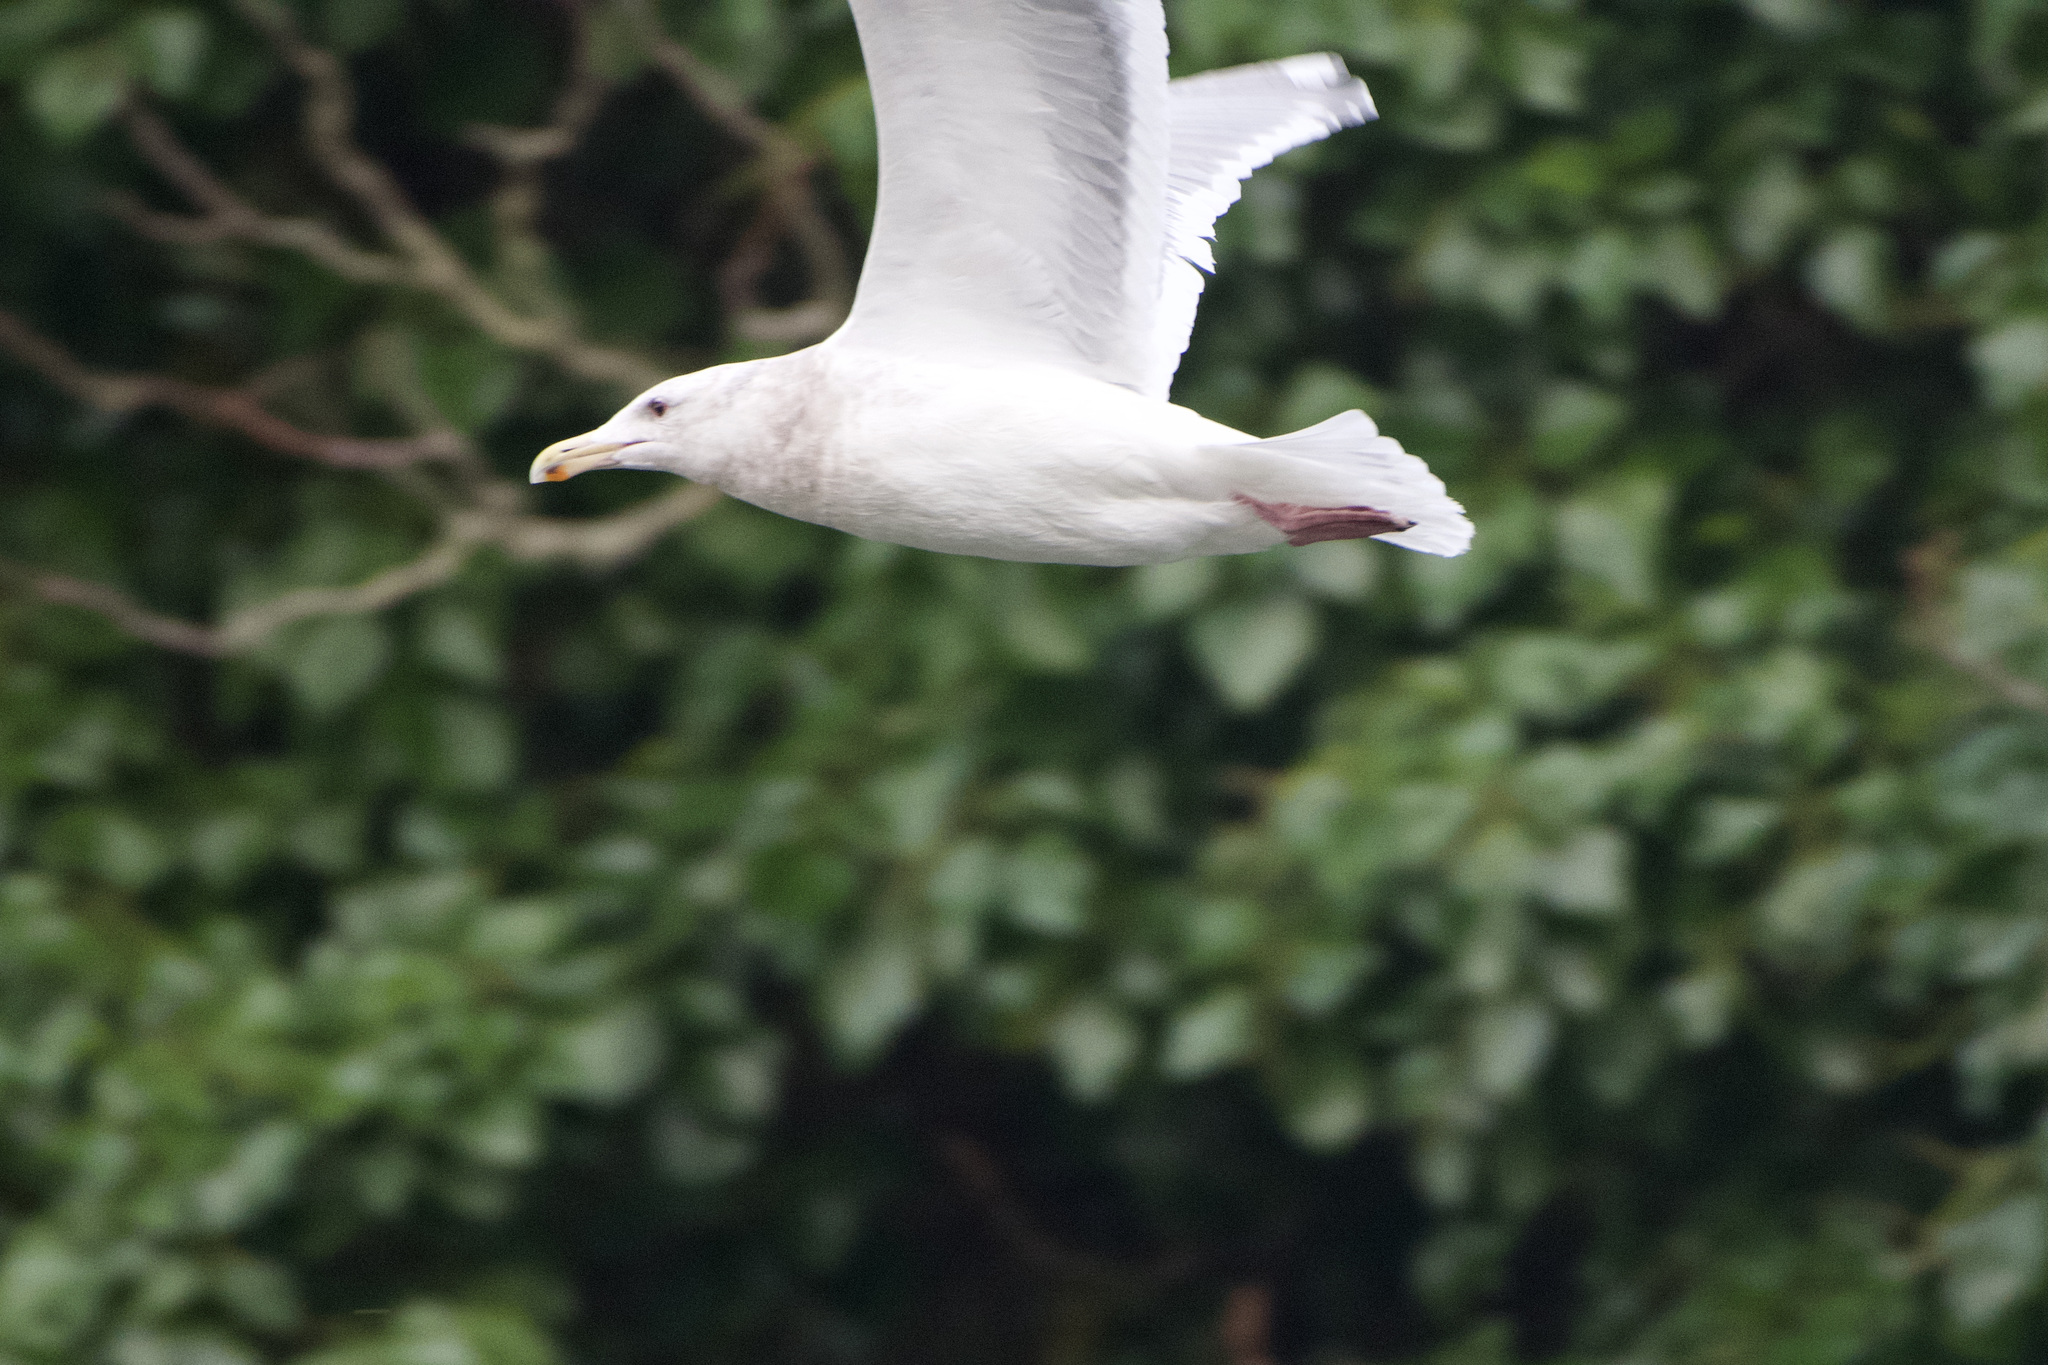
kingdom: Animalia
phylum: Chordata
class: Aves
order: Charadriiformes
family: Laridae
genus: Larus
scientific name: Larus glaucescens
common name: Glaucous-winged gull
